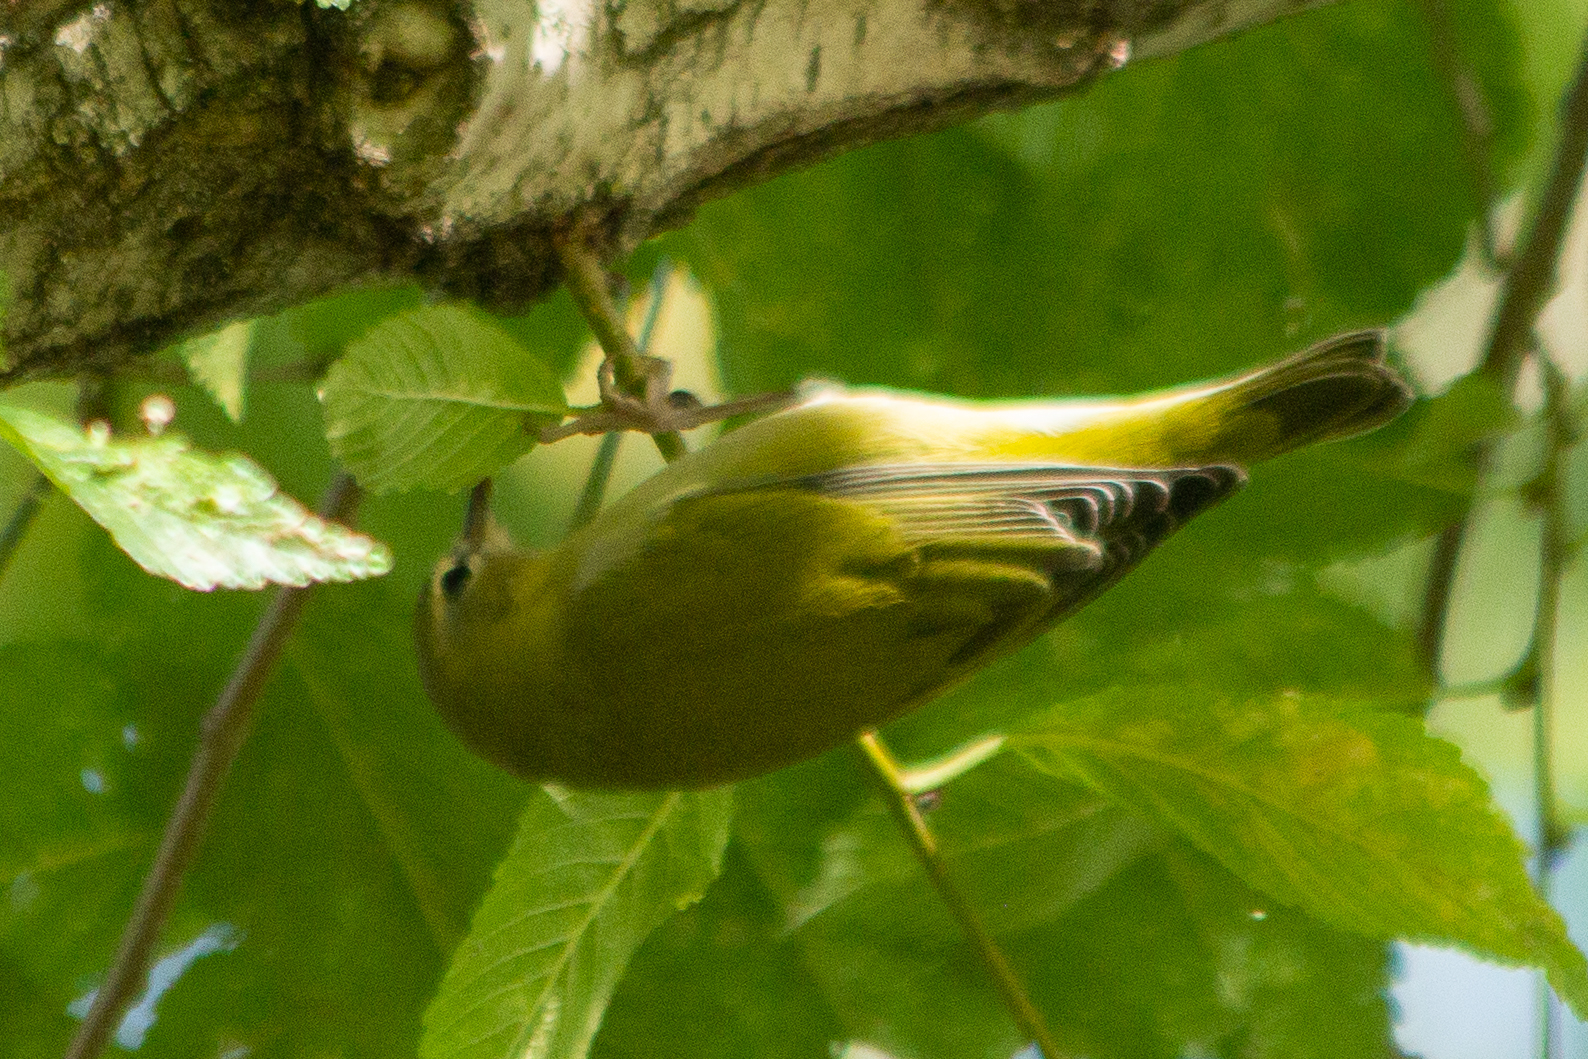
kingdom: Animalia
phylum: Chordata
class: Aves
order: Passeriformes
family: Parulidae
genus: Leiothlypis
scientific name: Leiothlypis peregrina
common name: Tennessee warbler
